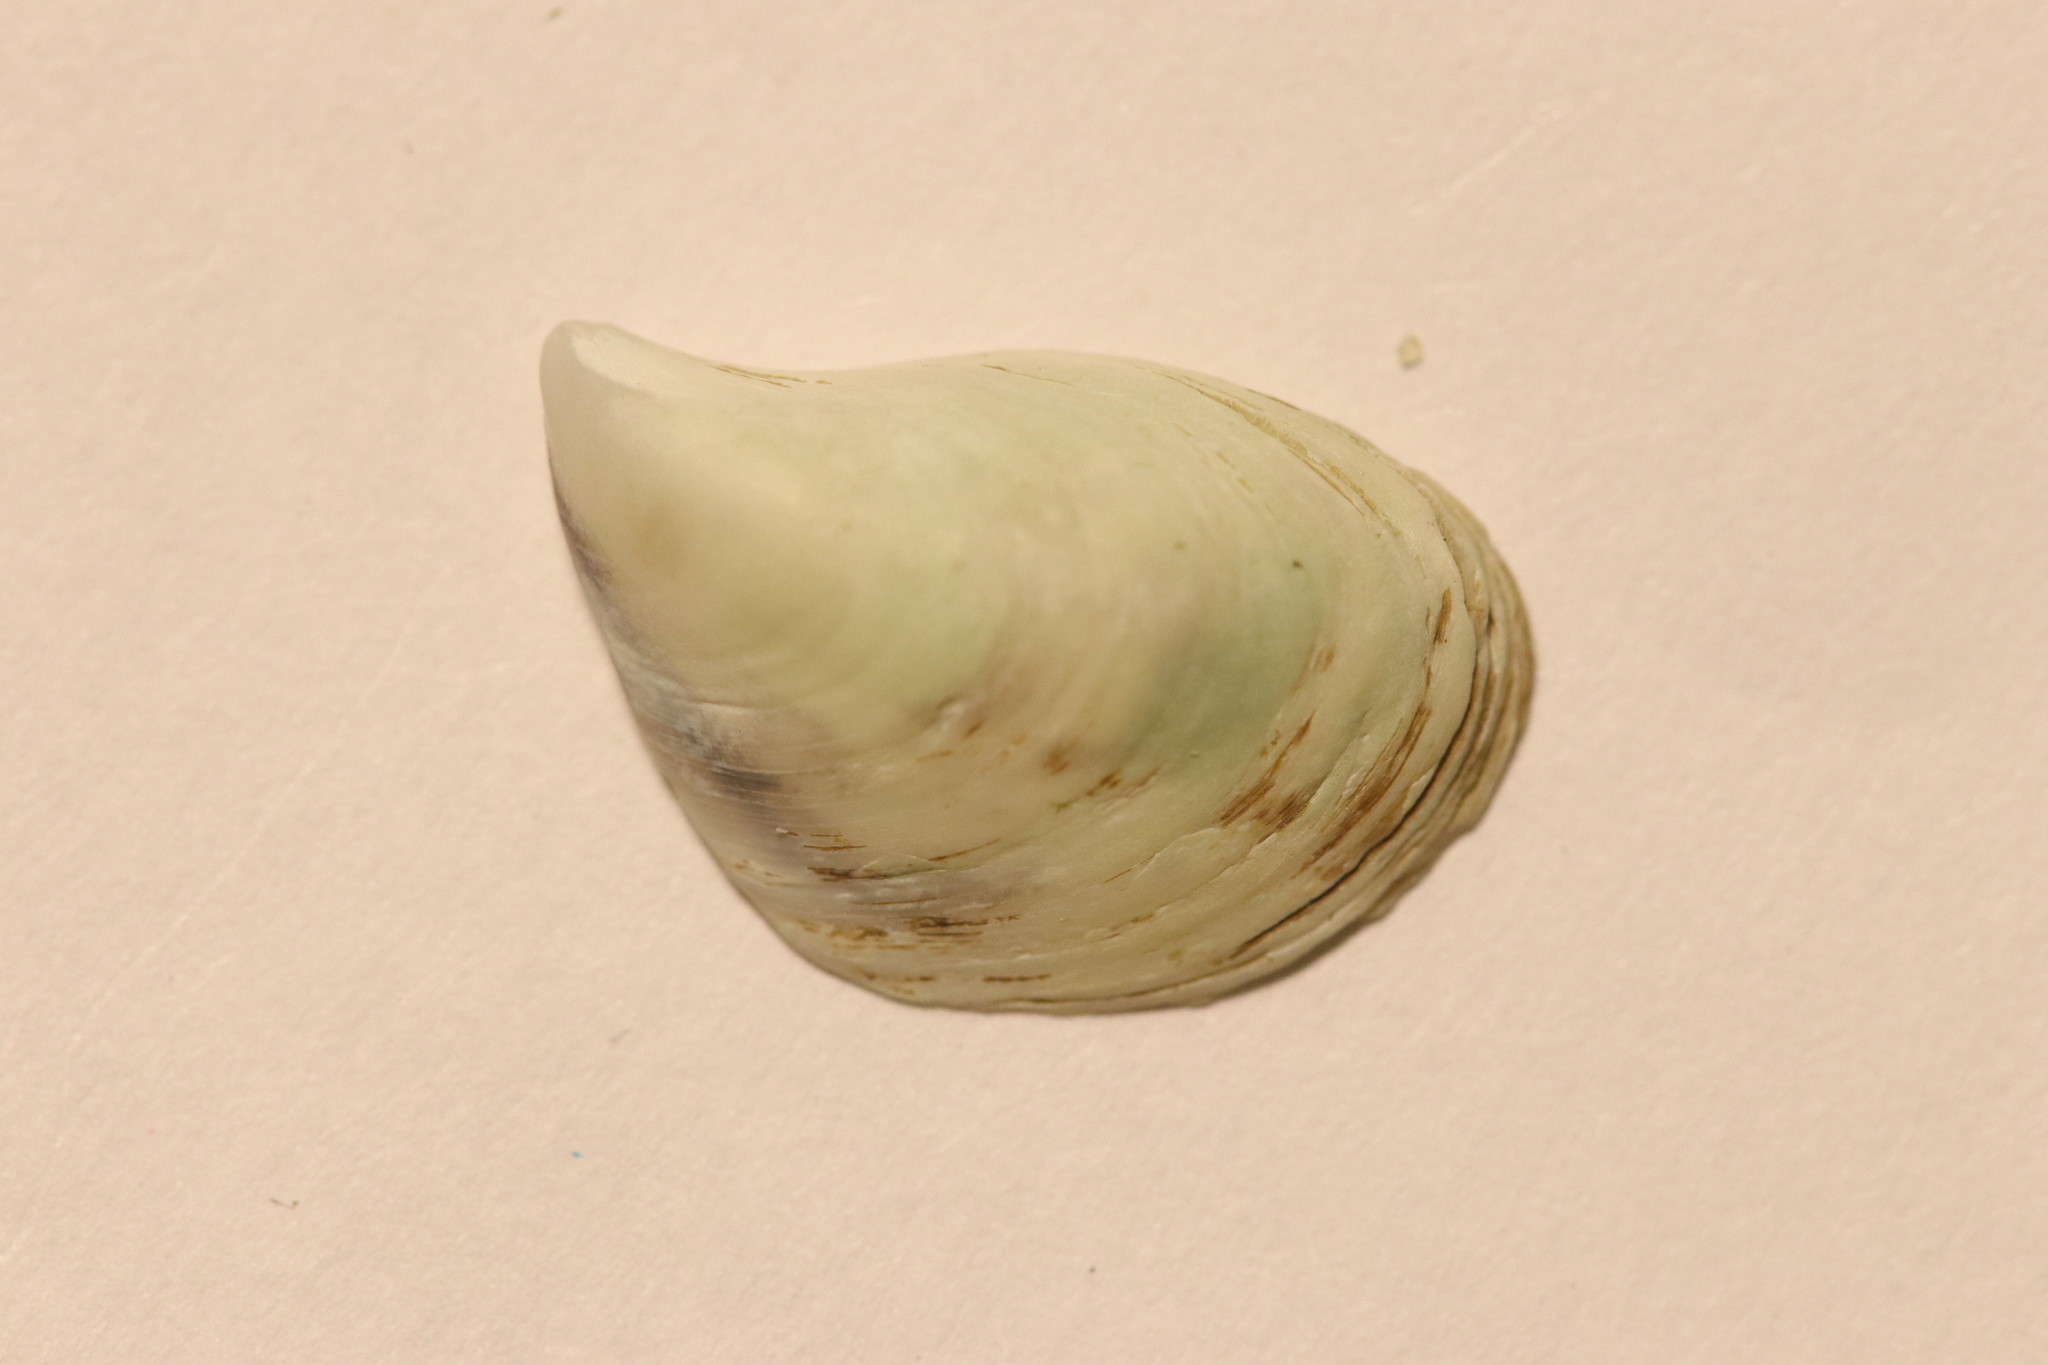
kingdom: Animalia
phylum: Mollusca
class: Bivalvia
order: Myida
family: Dreissenidae
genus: Dreissena
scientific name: Dreissena bugensis
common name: Quagga mussel
